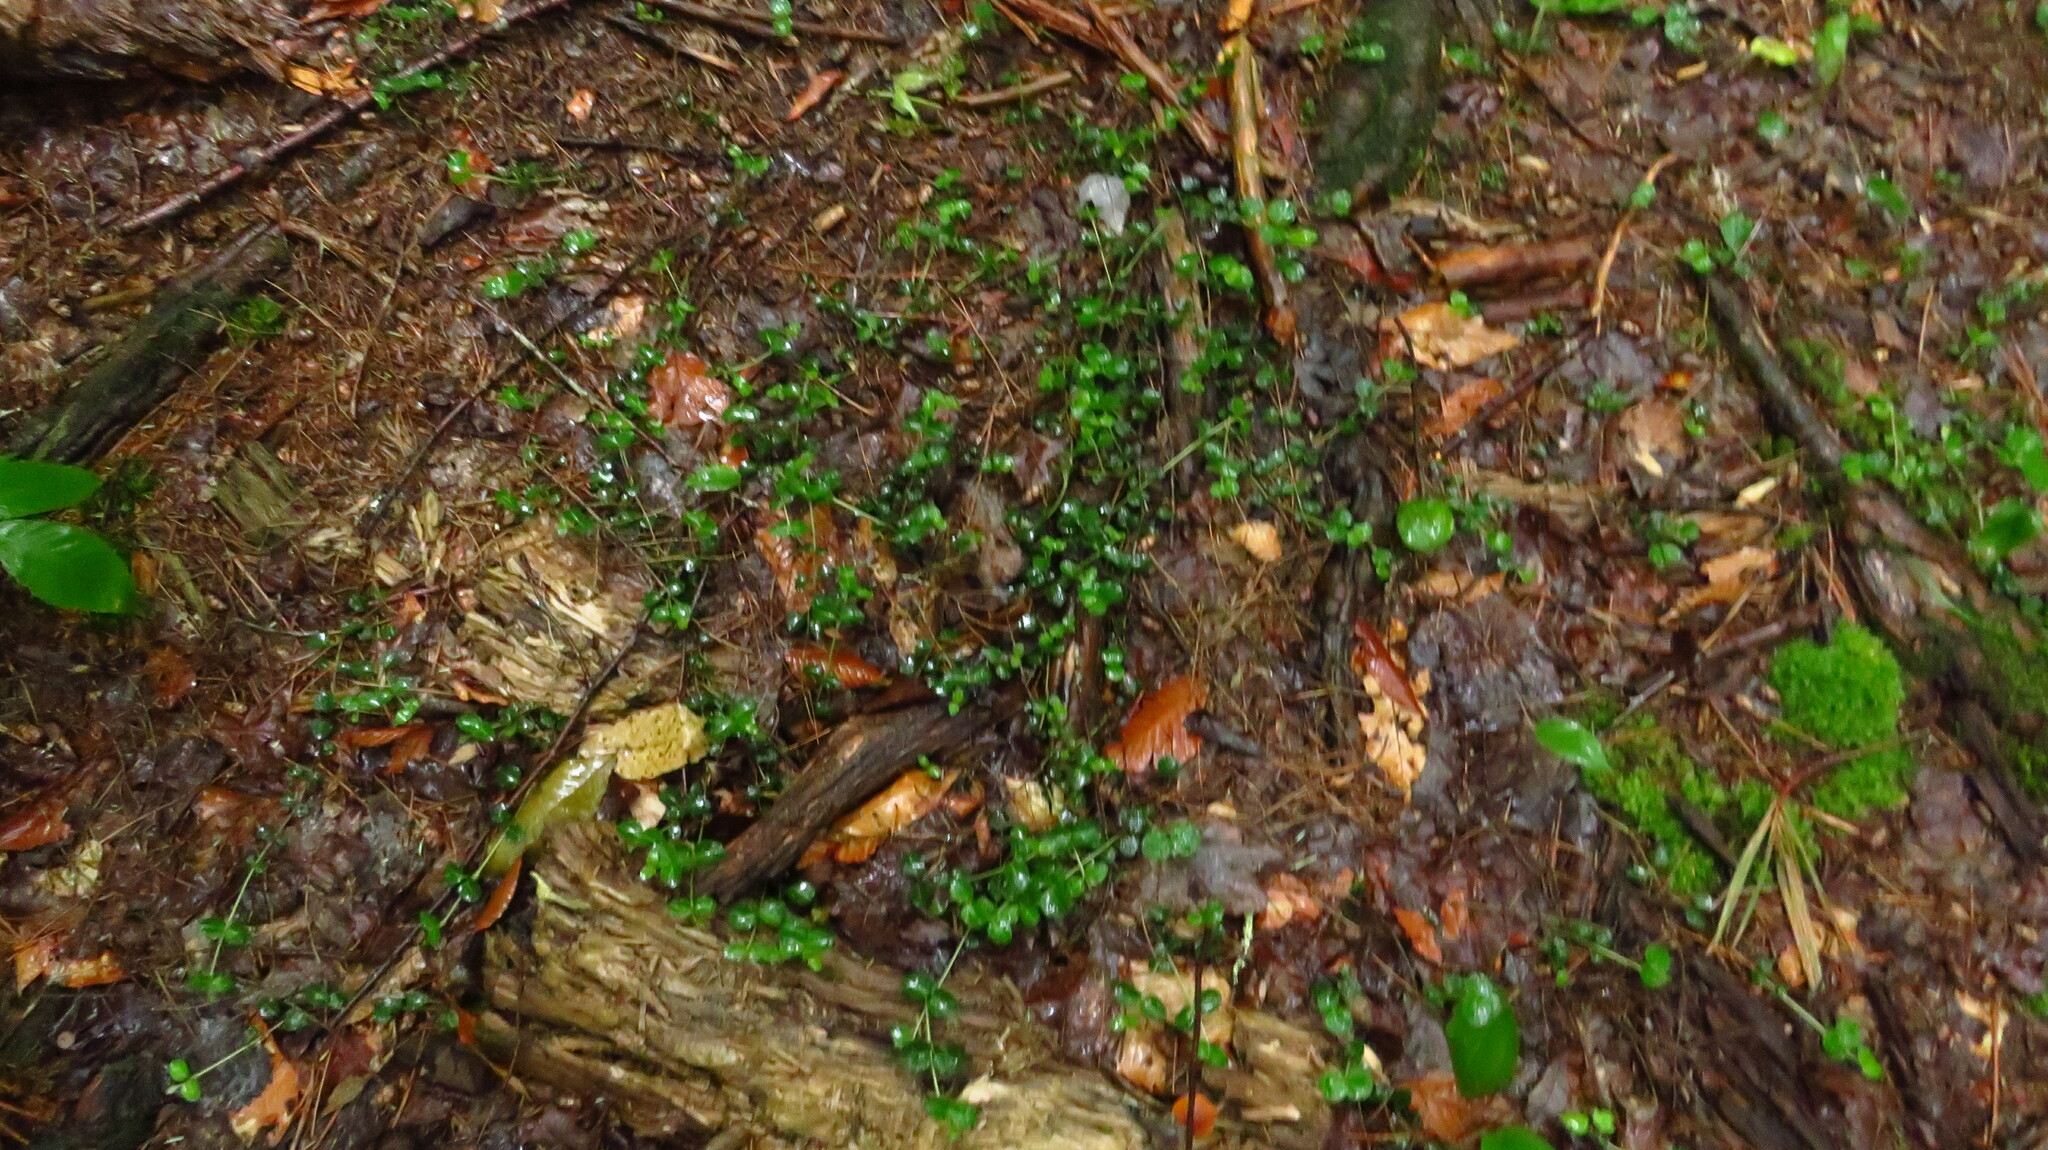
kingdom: Plantae
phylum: Tracheophyta
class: Magnoliopsida
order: Gentianales
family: Rubiaceae
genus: Mitchella
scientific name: Mitchella repens
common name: Partridge-berry
